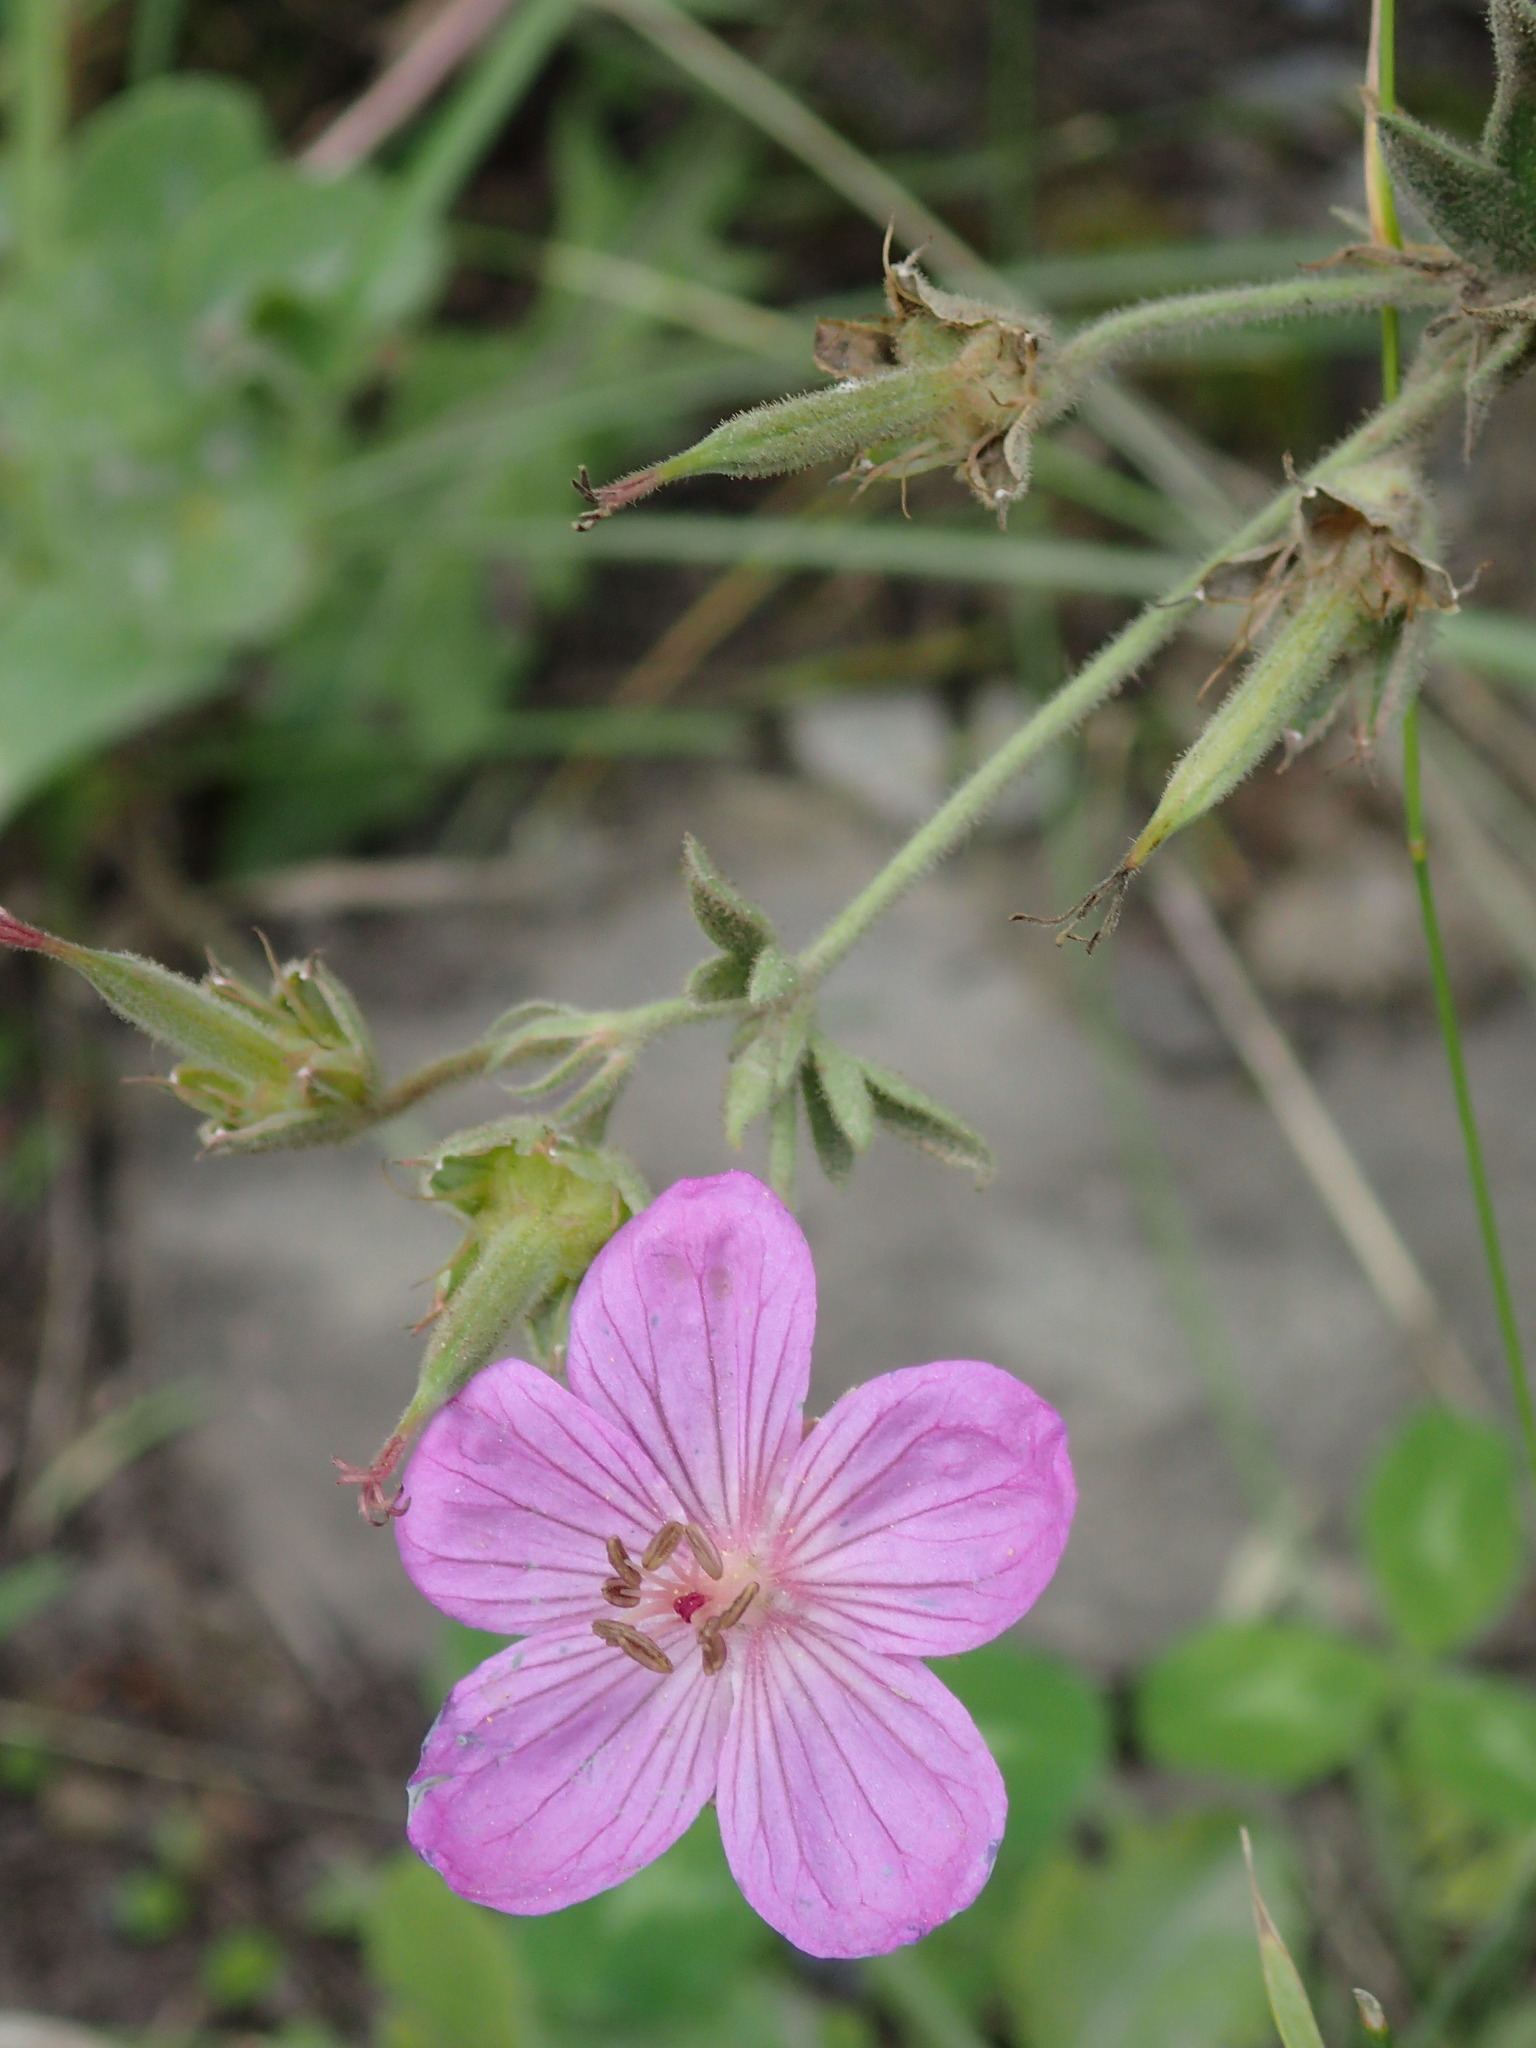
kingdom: Plantae
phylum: Tracheophyta
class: Magnoliopsida
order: Geraniales
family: Geraniaceae
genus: Geranium
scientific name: Geranium viscosissimum
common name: Purple geranium
